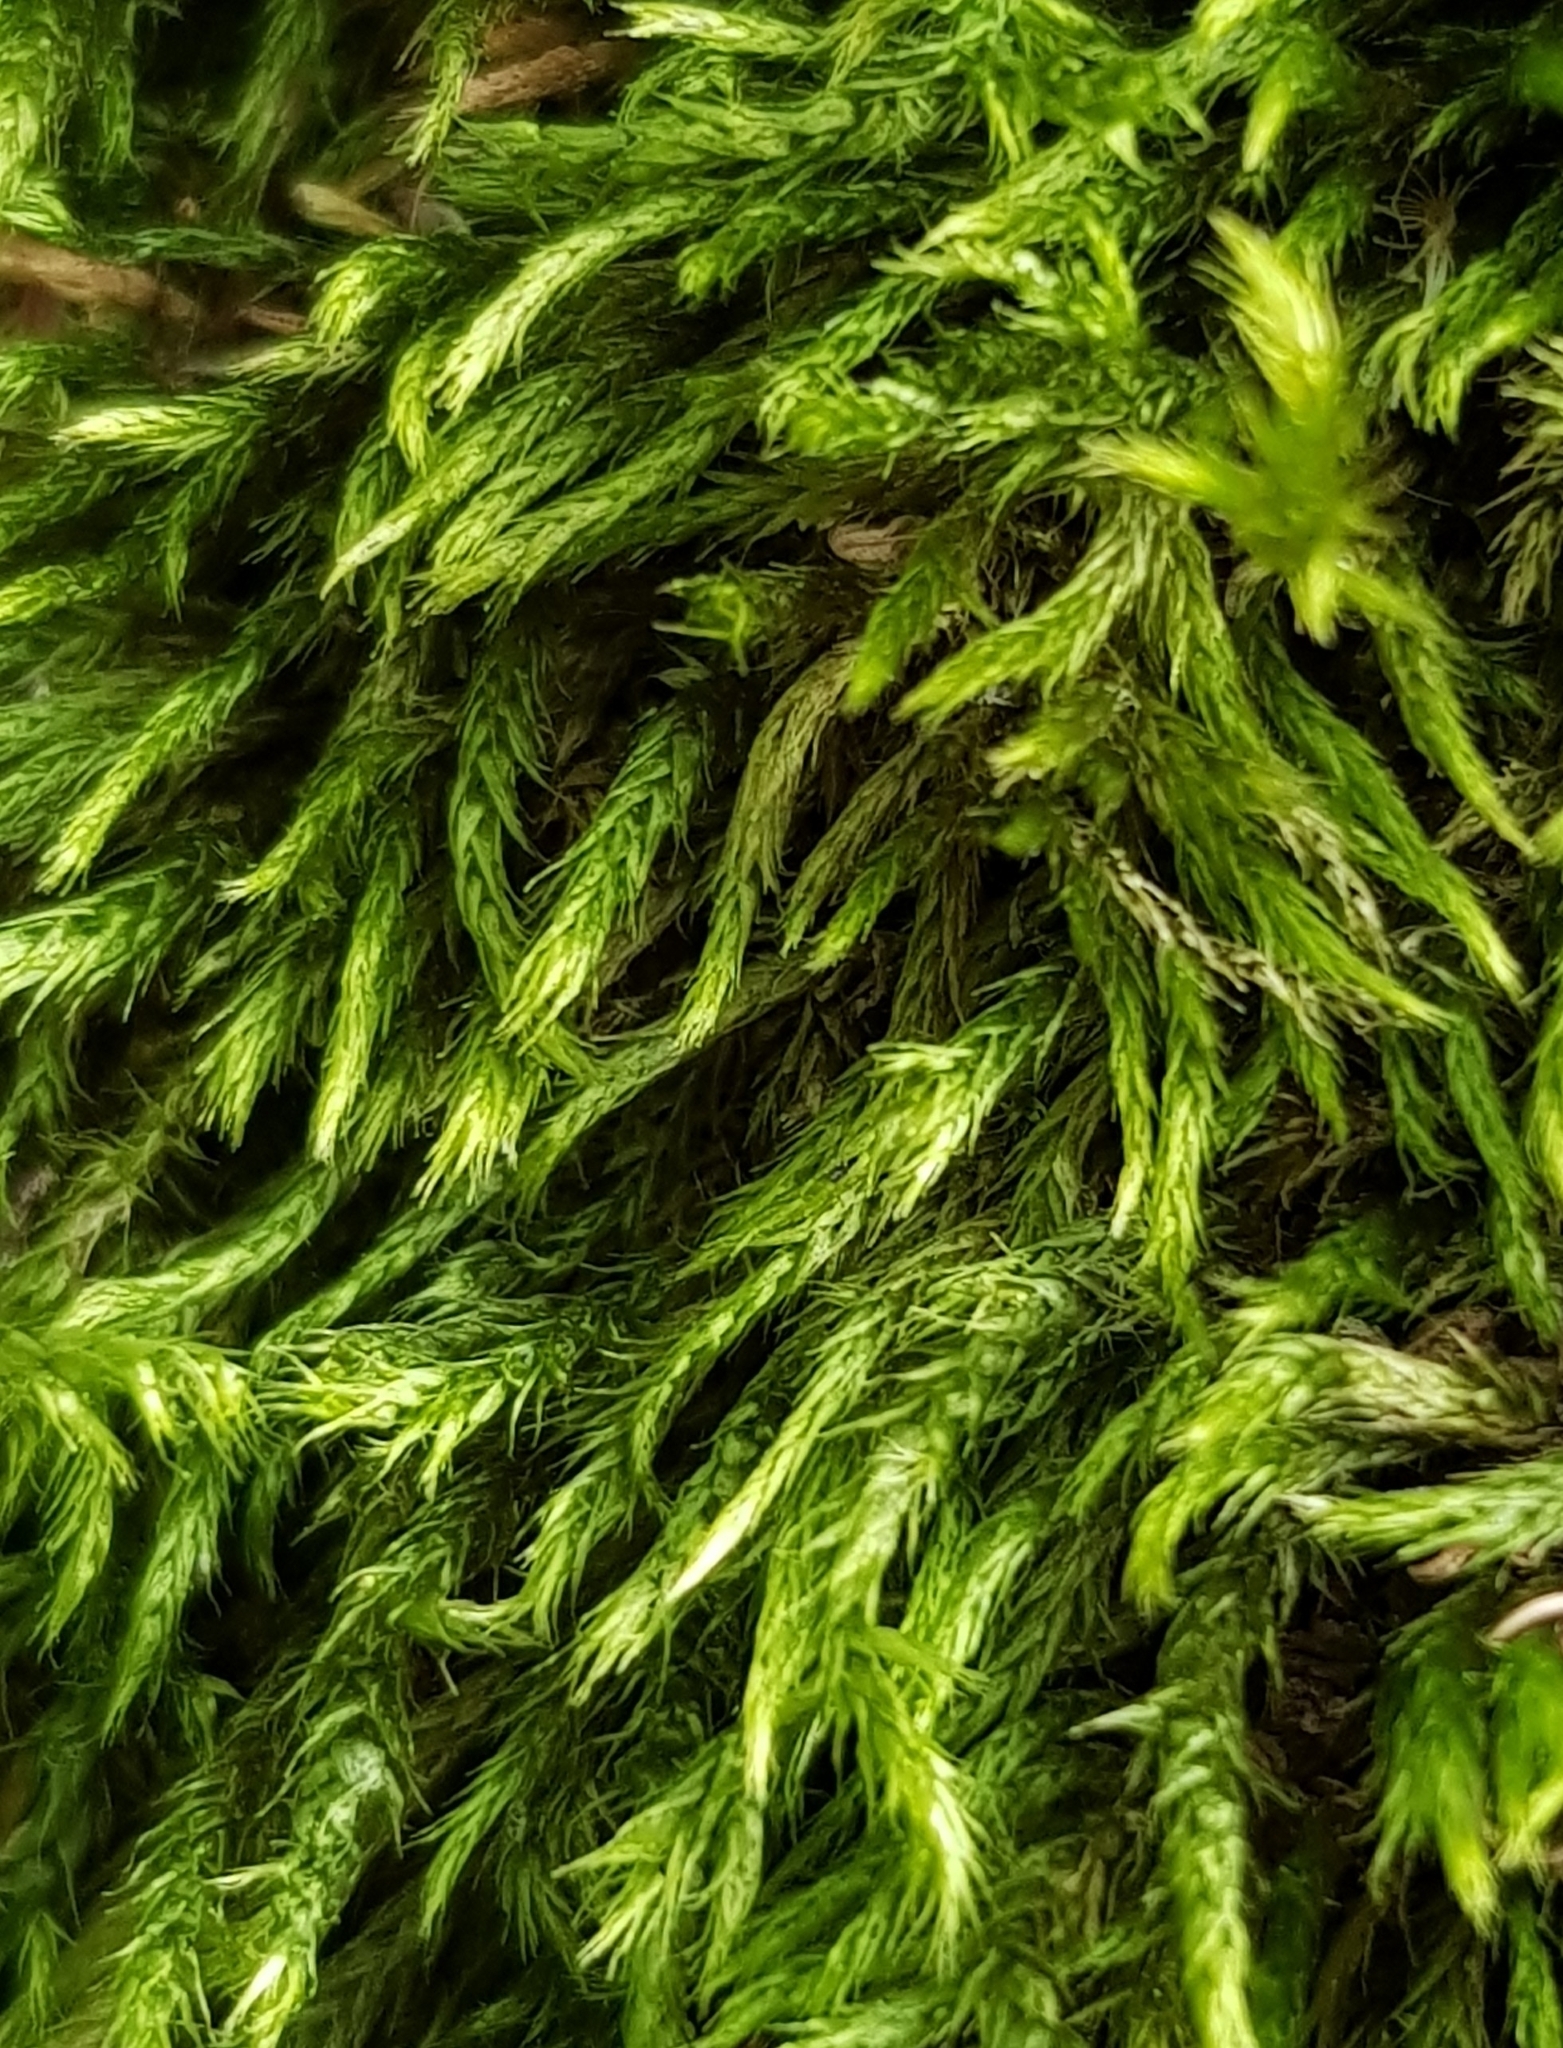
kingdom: Plantae
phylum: Bryophyta
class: Bryopsida
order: Hypnales
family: Amblystegiaceae
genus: Hygroamblystegium
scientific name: Hygroamblystegium tenax
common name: Fountain feather-moss
